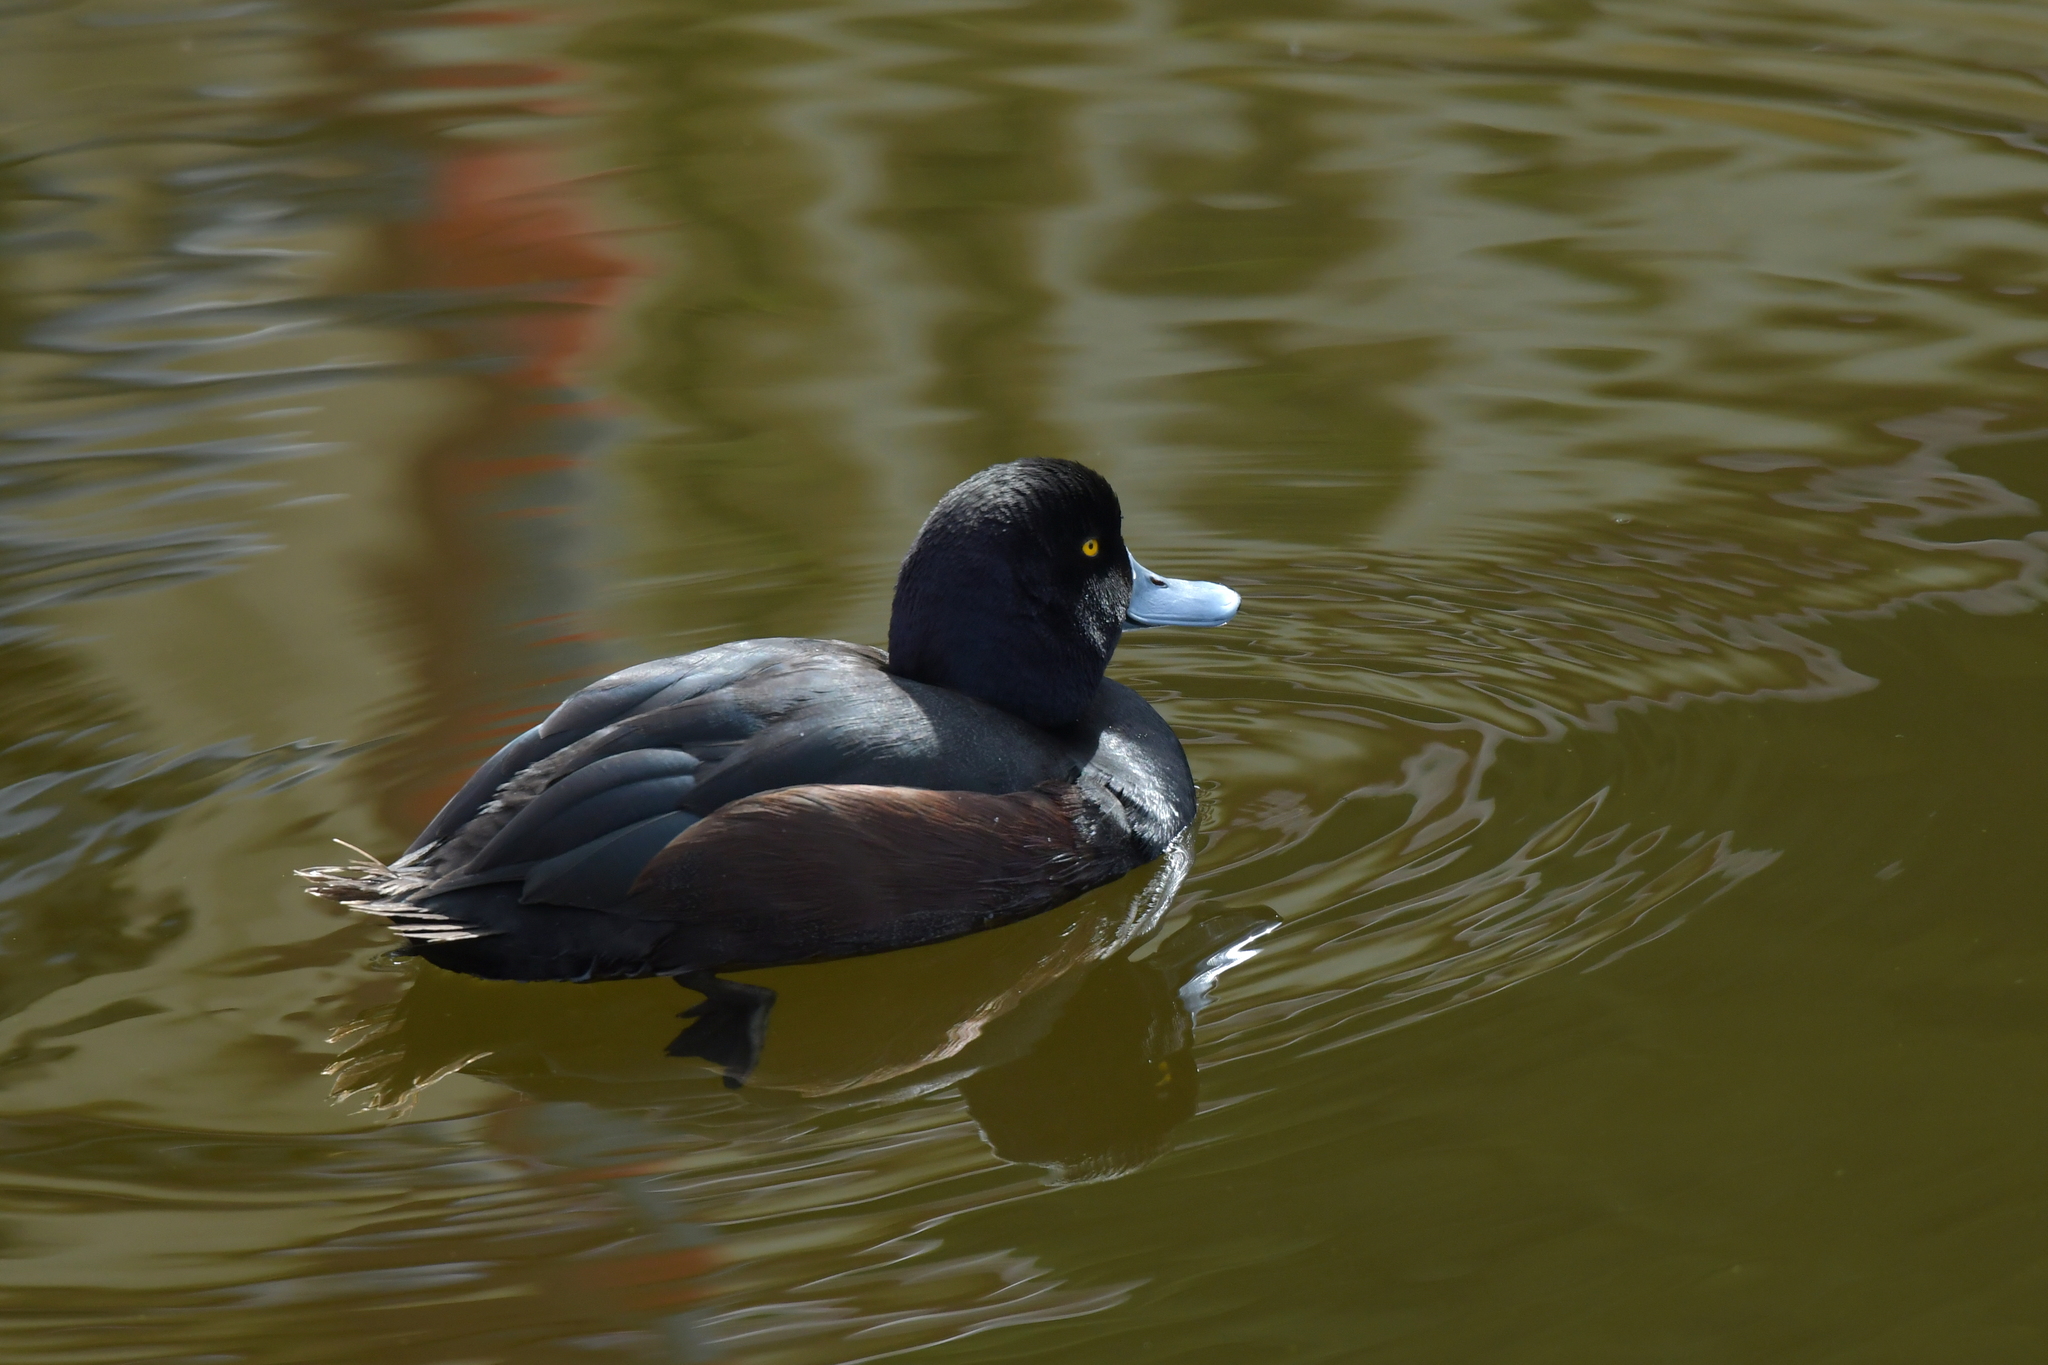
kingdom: Animalia
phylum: Chordata
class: Aves
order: Anseriformes
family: Anatidae
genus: Aythya
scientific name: Aythya novaeseelandiae
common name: New zealand scaup
